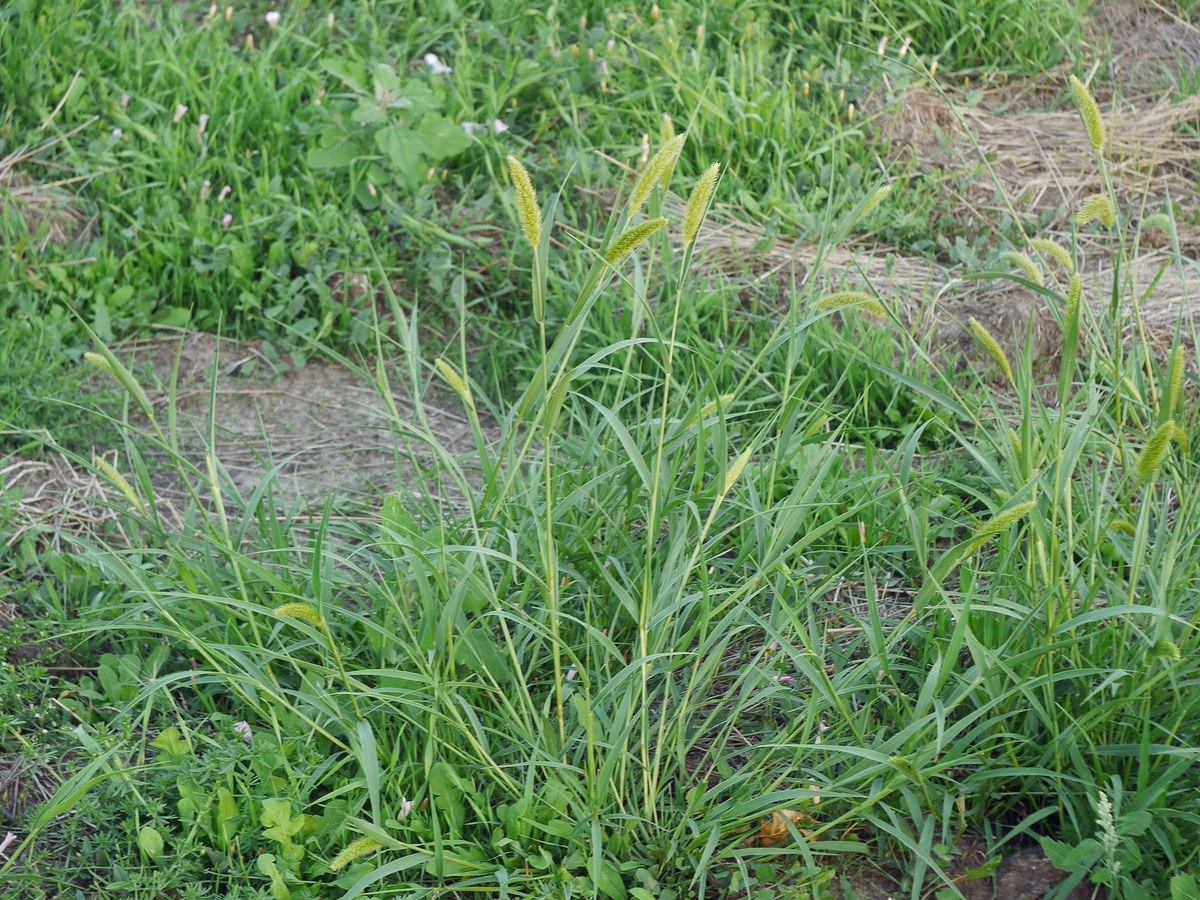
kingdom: Plantae
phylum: Tracheophyta
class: Liliopsida
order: Poales
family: Poaceae
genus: Setaria
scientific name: Setaria viridis
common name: Green bristlegrass
